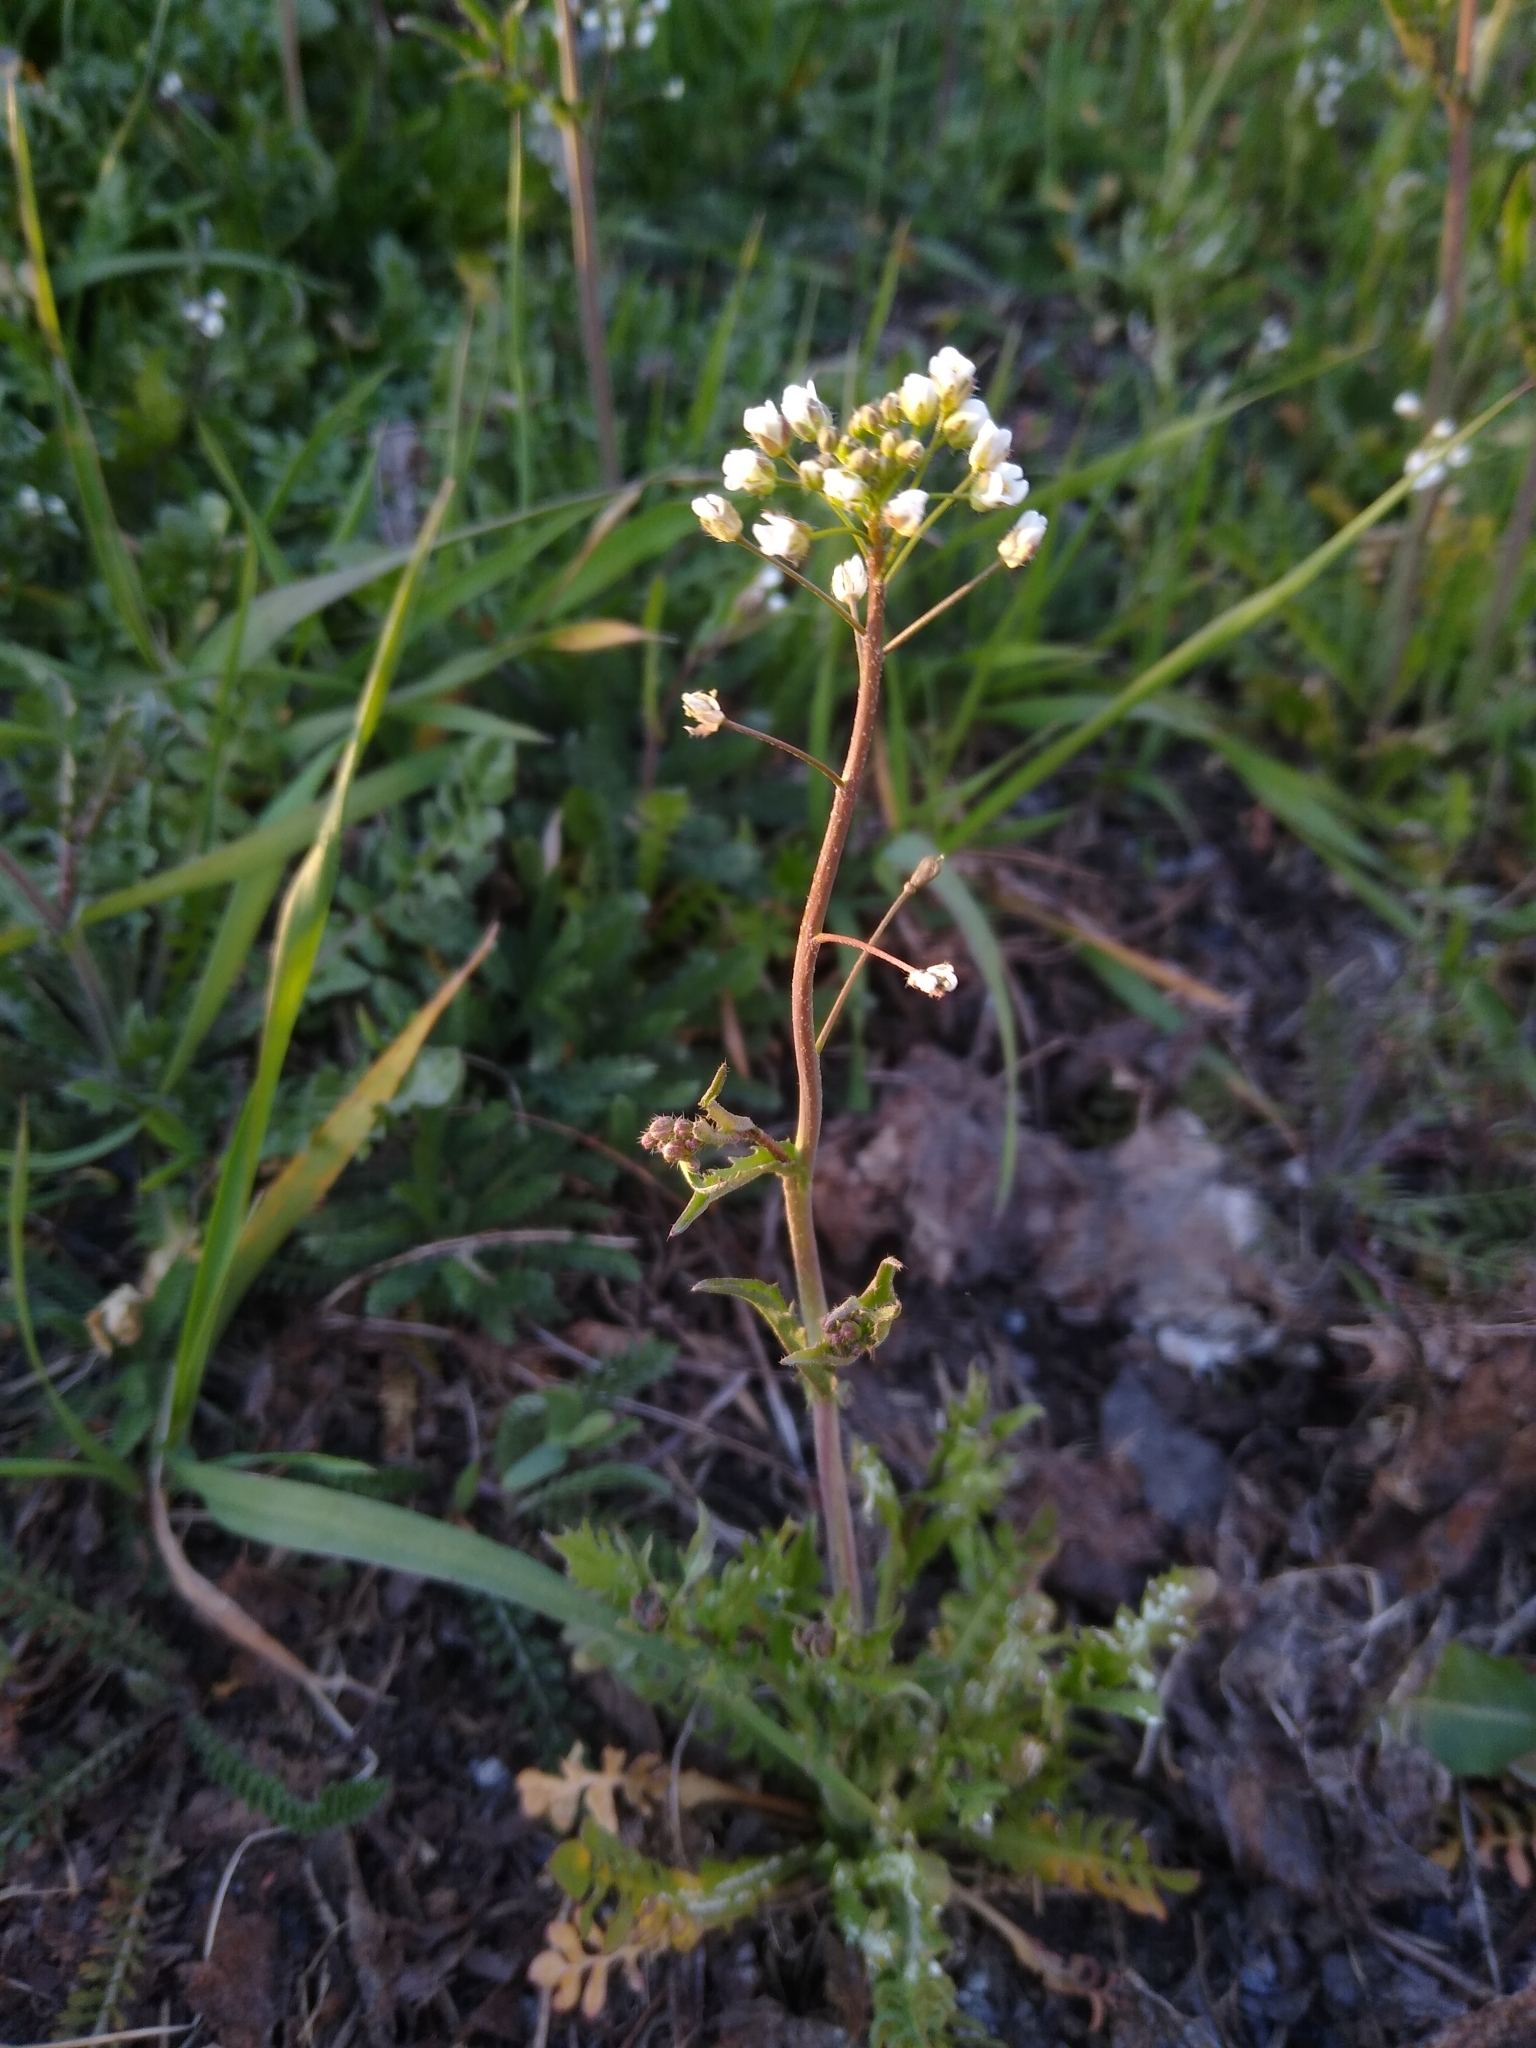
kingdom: Plantae
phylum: Tracheophyta
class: Magnoliopsida
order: Brassicales
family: Brassicaceae
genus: Capsella
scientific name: Capsella bursa-pastoris
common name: Shepherd's purse
